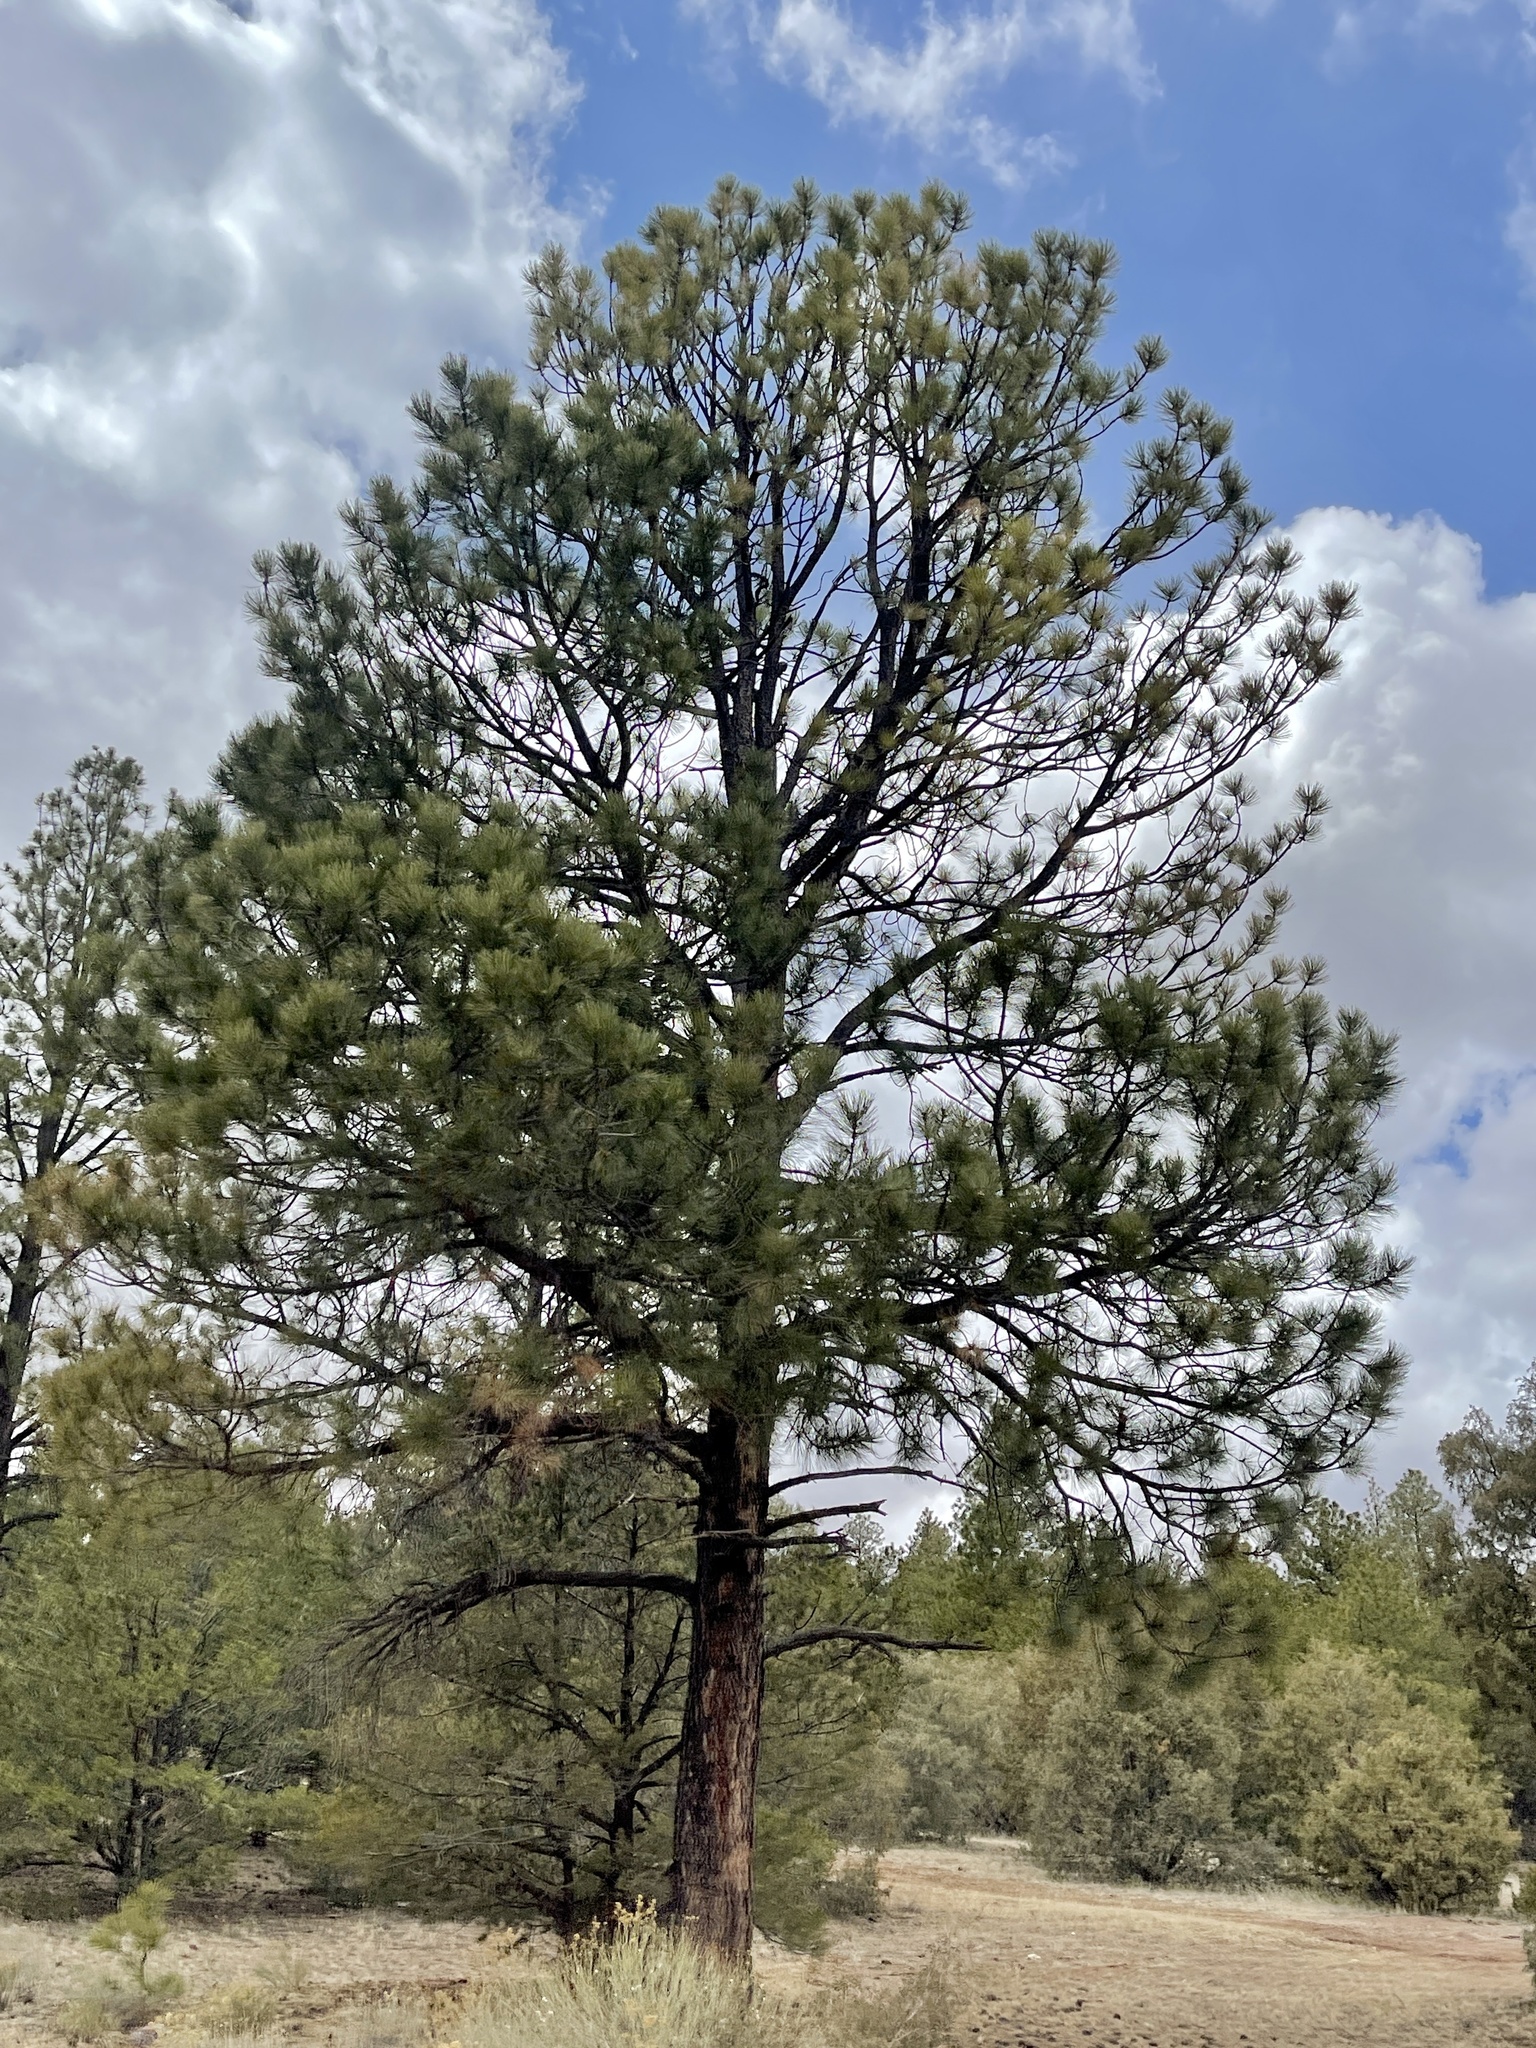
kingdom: Plantae
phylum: Tracheophyta
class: Pinopsida
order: Pinales
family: Pinaceae
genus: Pinus
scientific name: Pinus ponderosa
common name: Western yellow-pine
